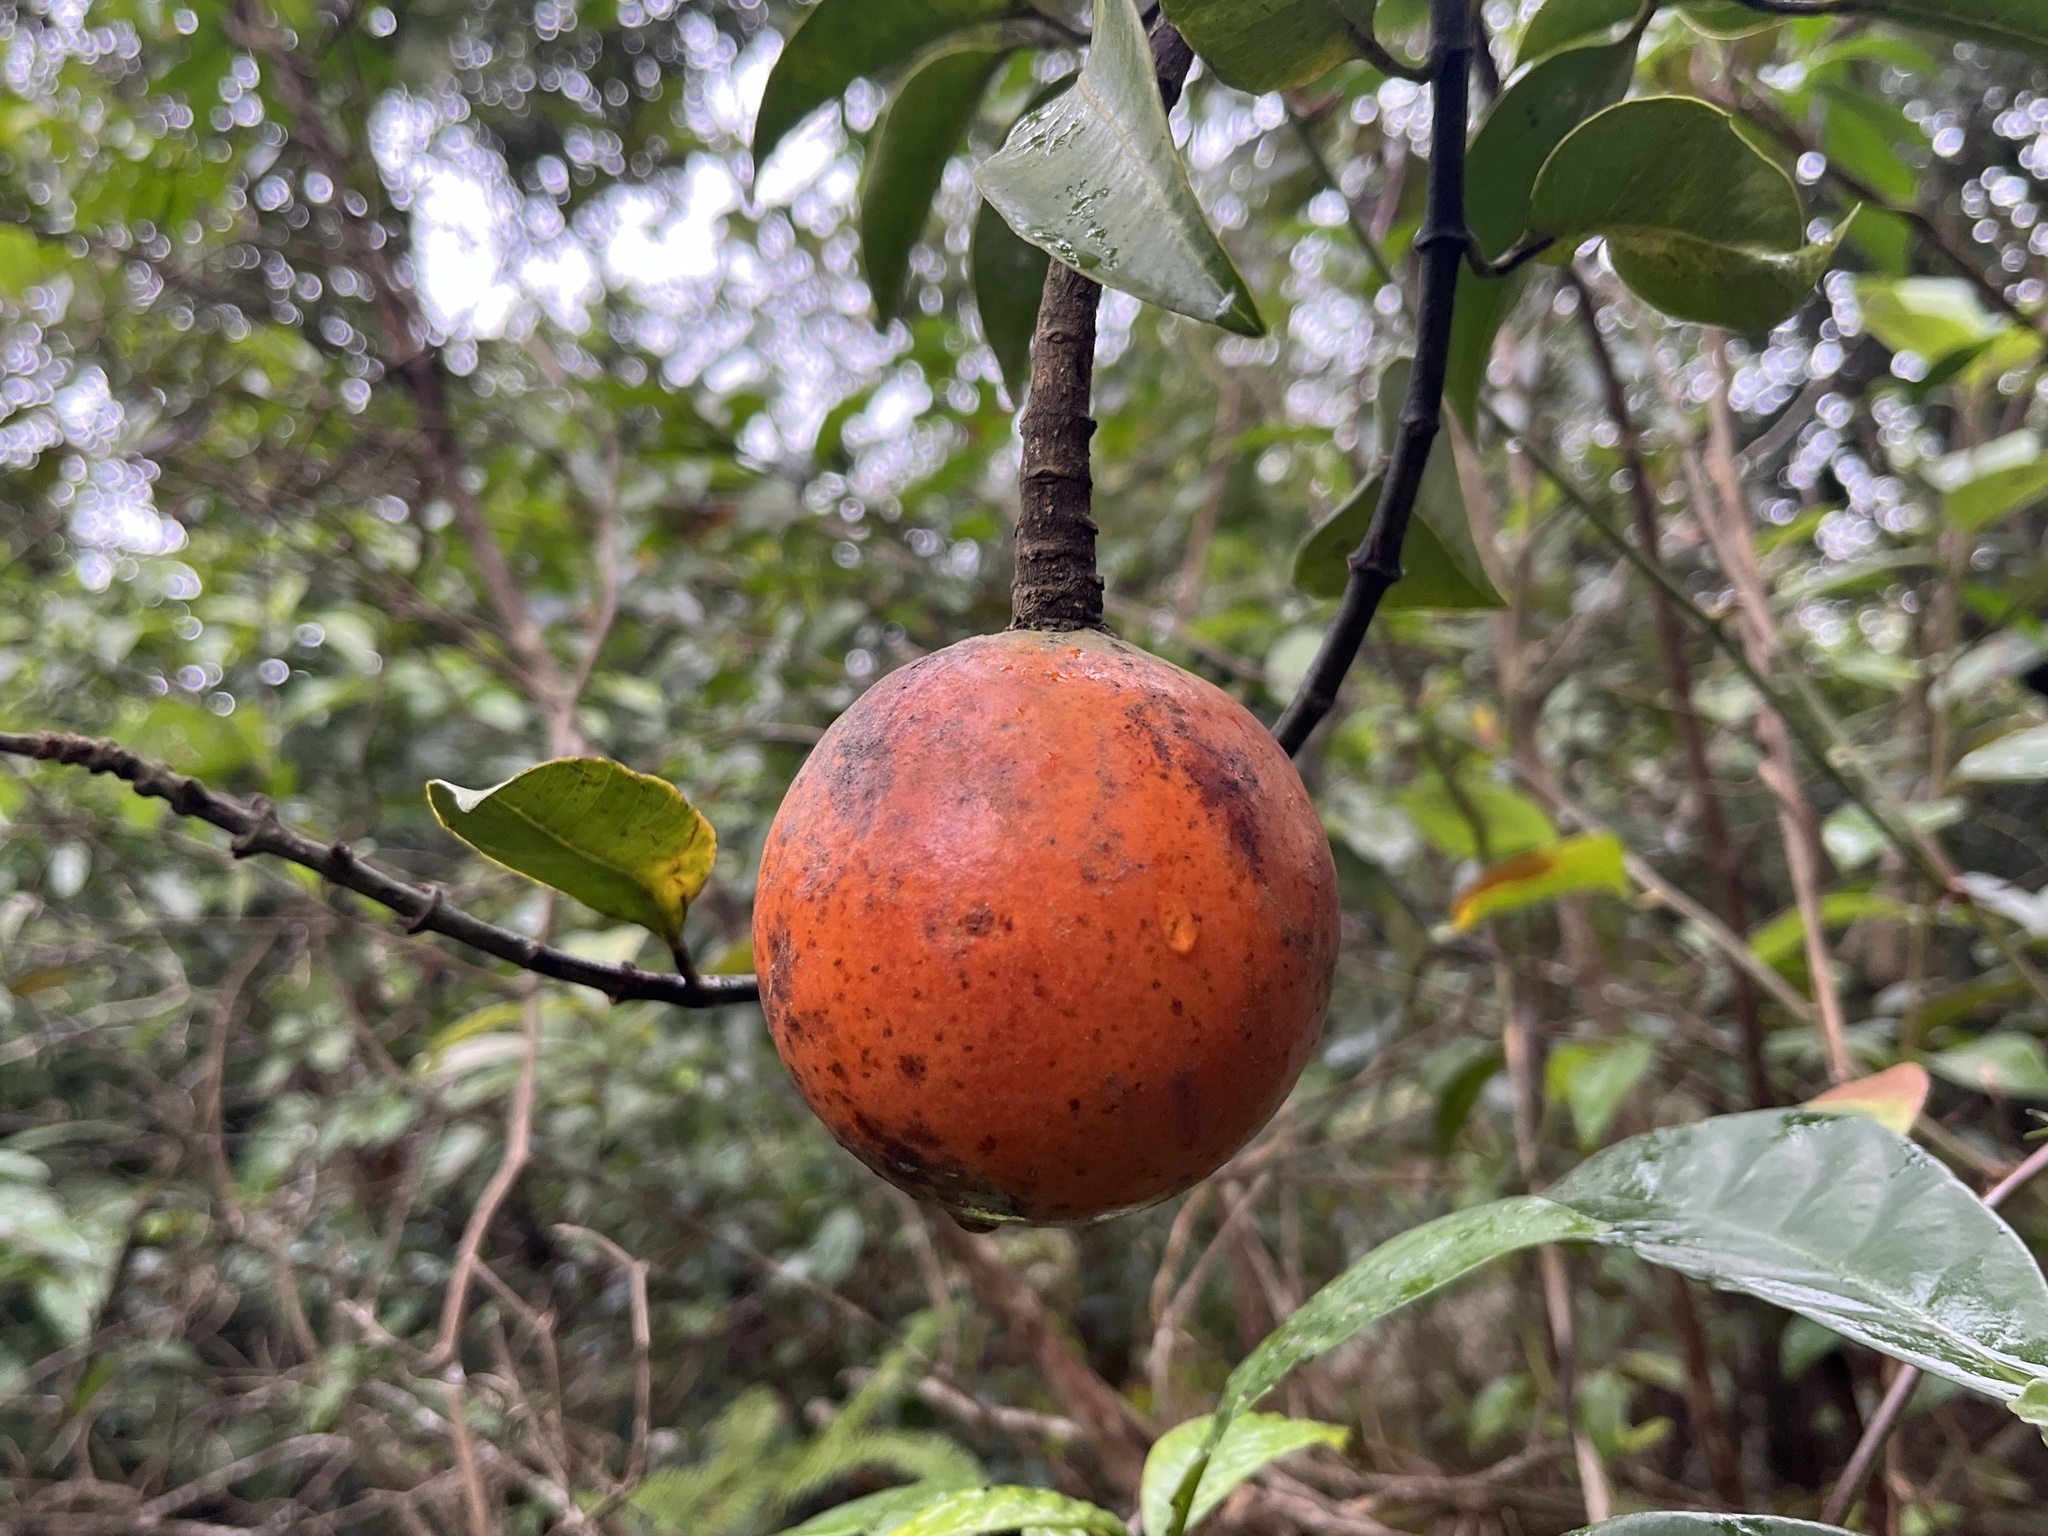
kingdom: Plantae
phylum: Tracheophyta
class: Magnoliopsida
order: Gentianales
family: Apocynaceae
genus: Melodinus
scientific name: Melodinus suaveolens
